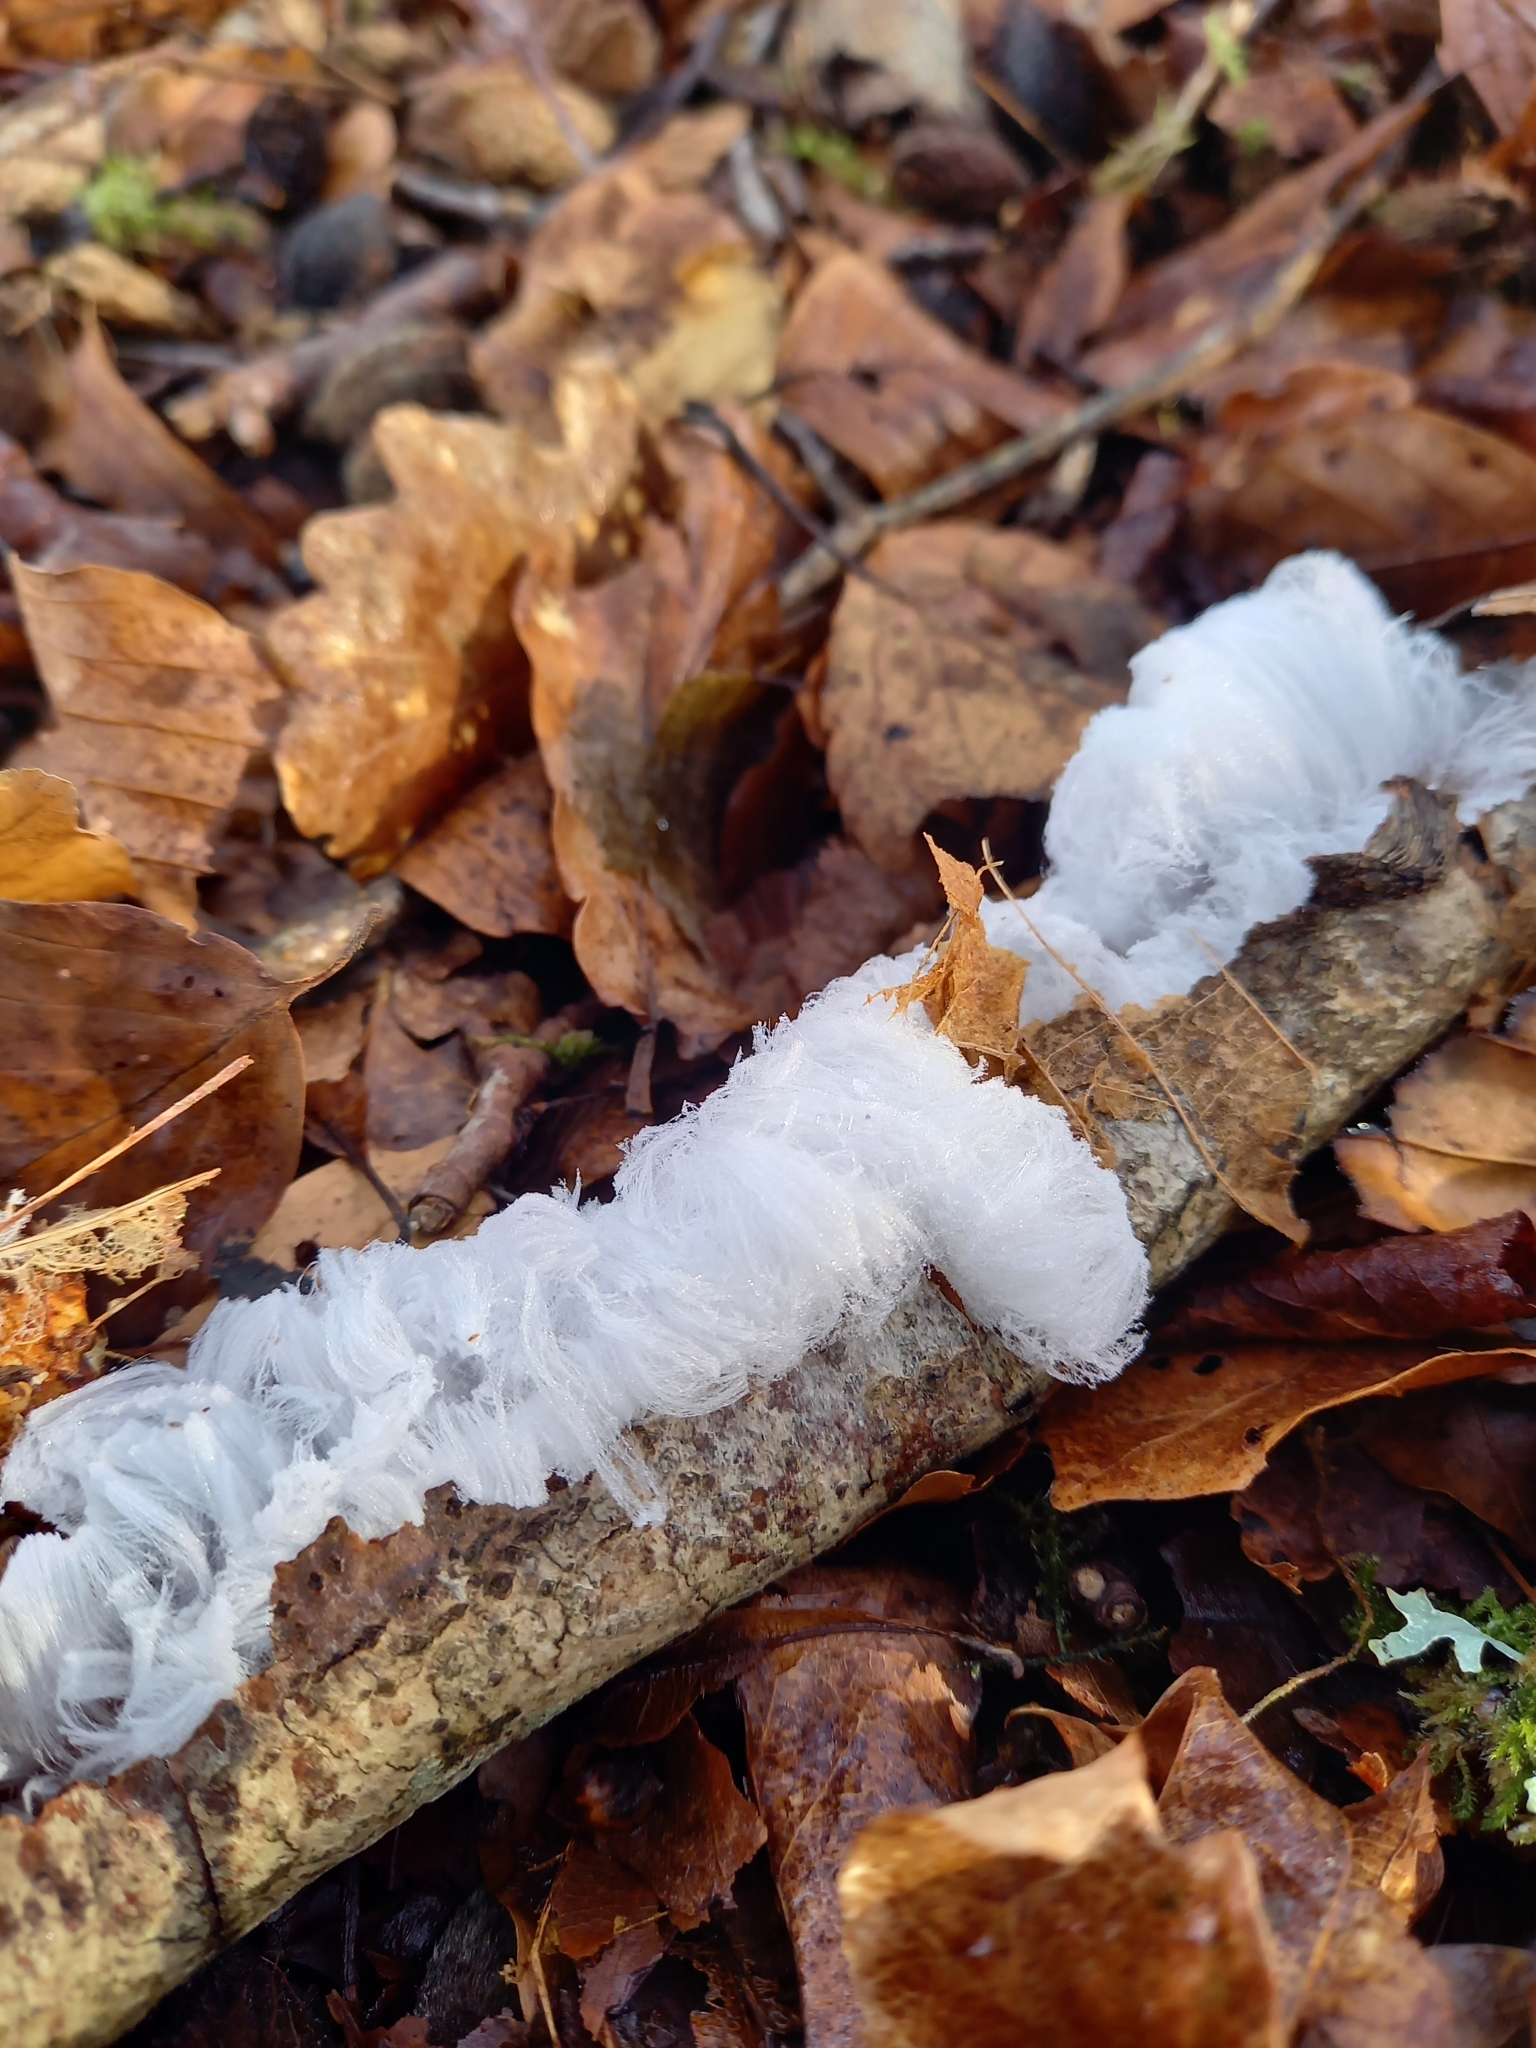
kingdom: Fungi
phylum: Basidiomycota
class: Agaricomycetes
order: Auriculariales
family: Auriculariaceae
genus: Exidiopsis
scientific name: Exidiopsis effusa
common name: Hair ice crust
